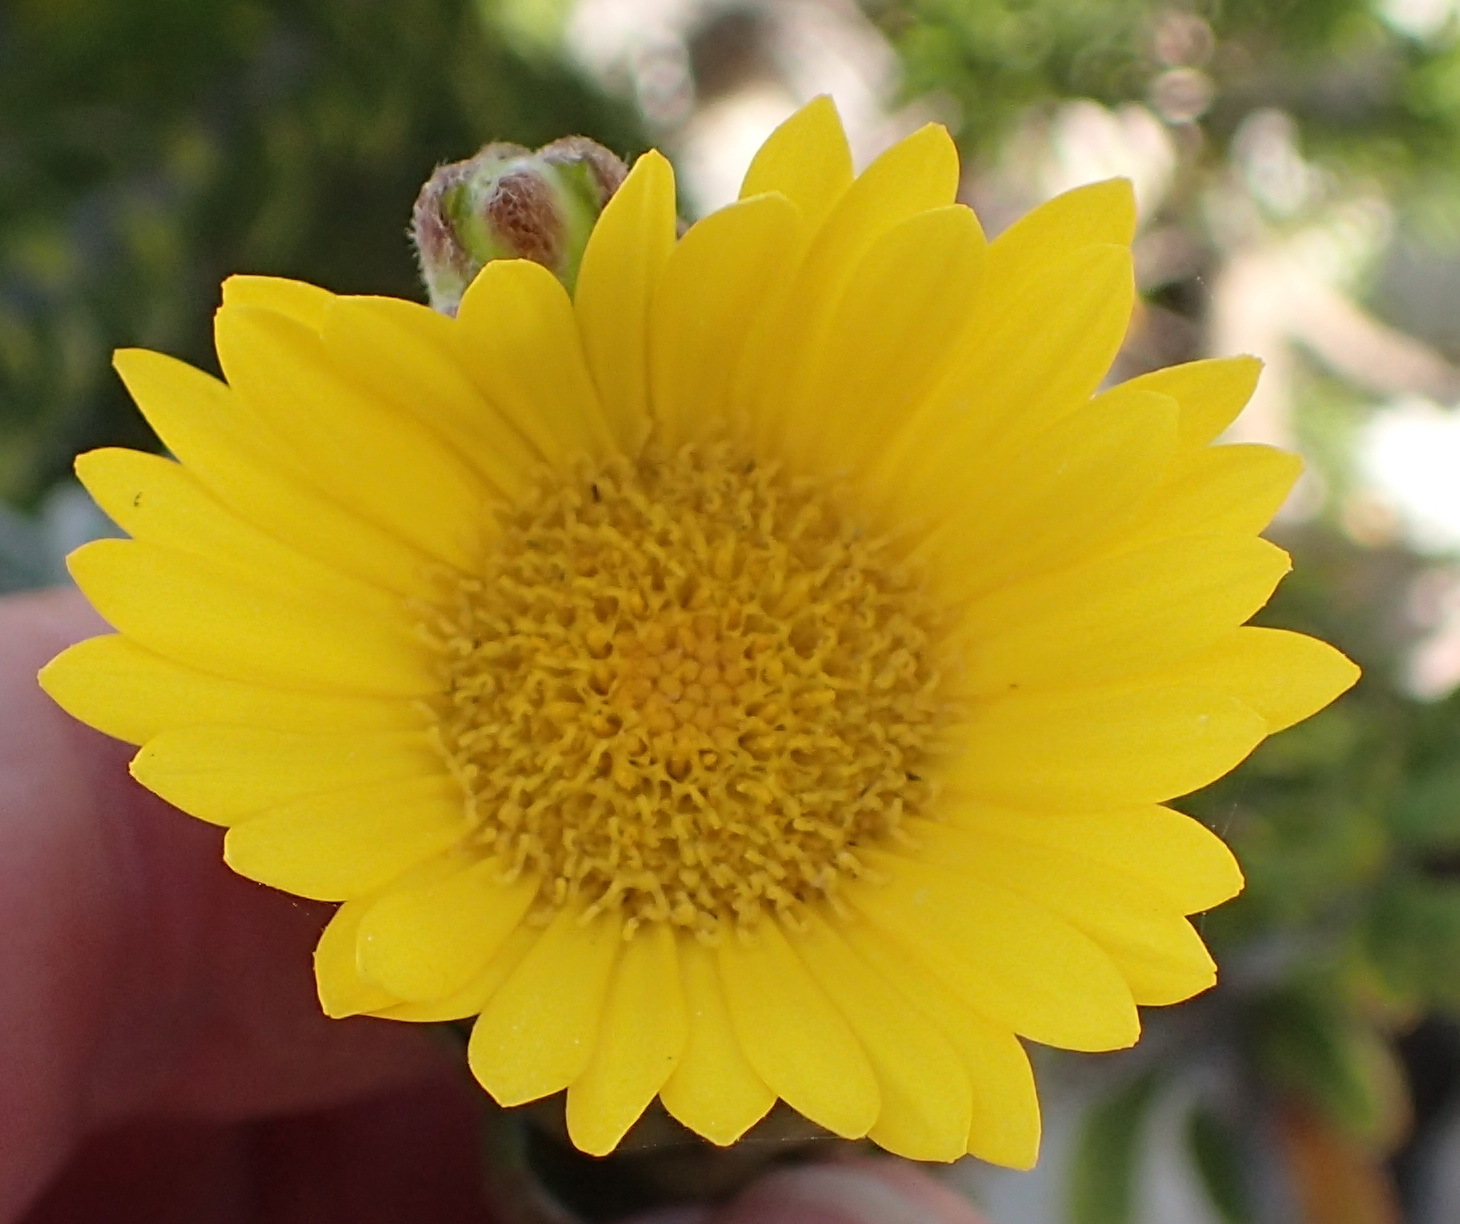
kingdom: Plantae
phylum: Tracheophyta
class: Magnoliopsida
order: Asterales
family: Asteraceae
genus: Oedera
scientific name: Oedera calycina
